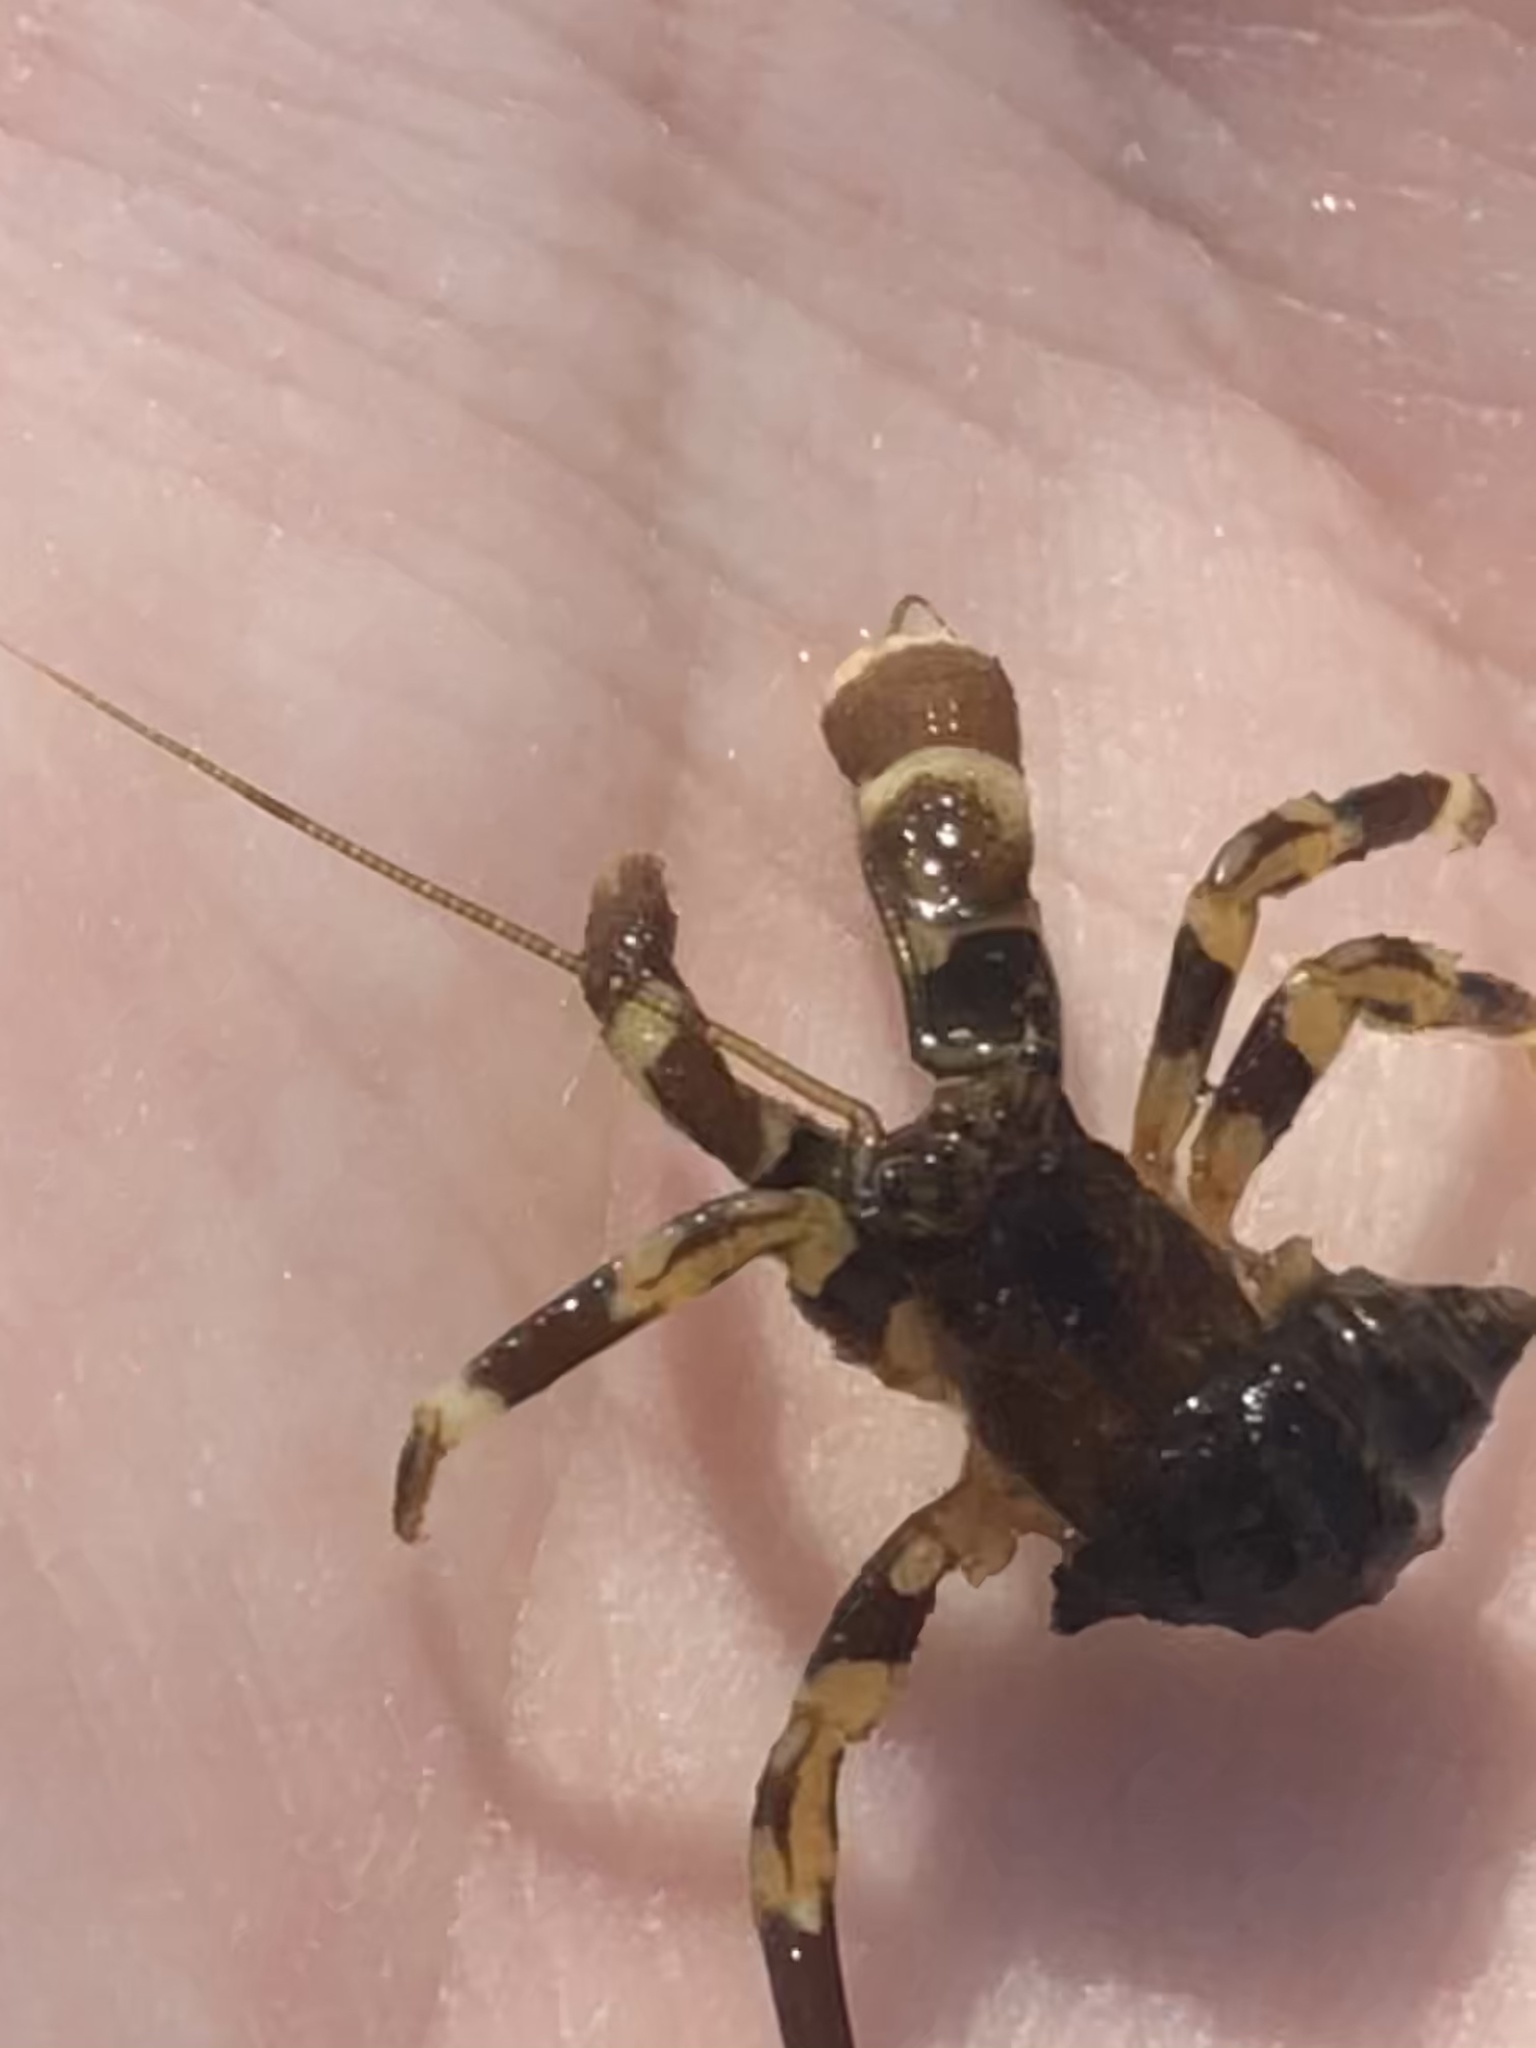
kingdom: Animalia
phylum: Arthropoda
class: Malacostraca
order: Decapoda
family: Paguridae
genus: Pagurus
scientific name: Pagurus hirsutiusculus
